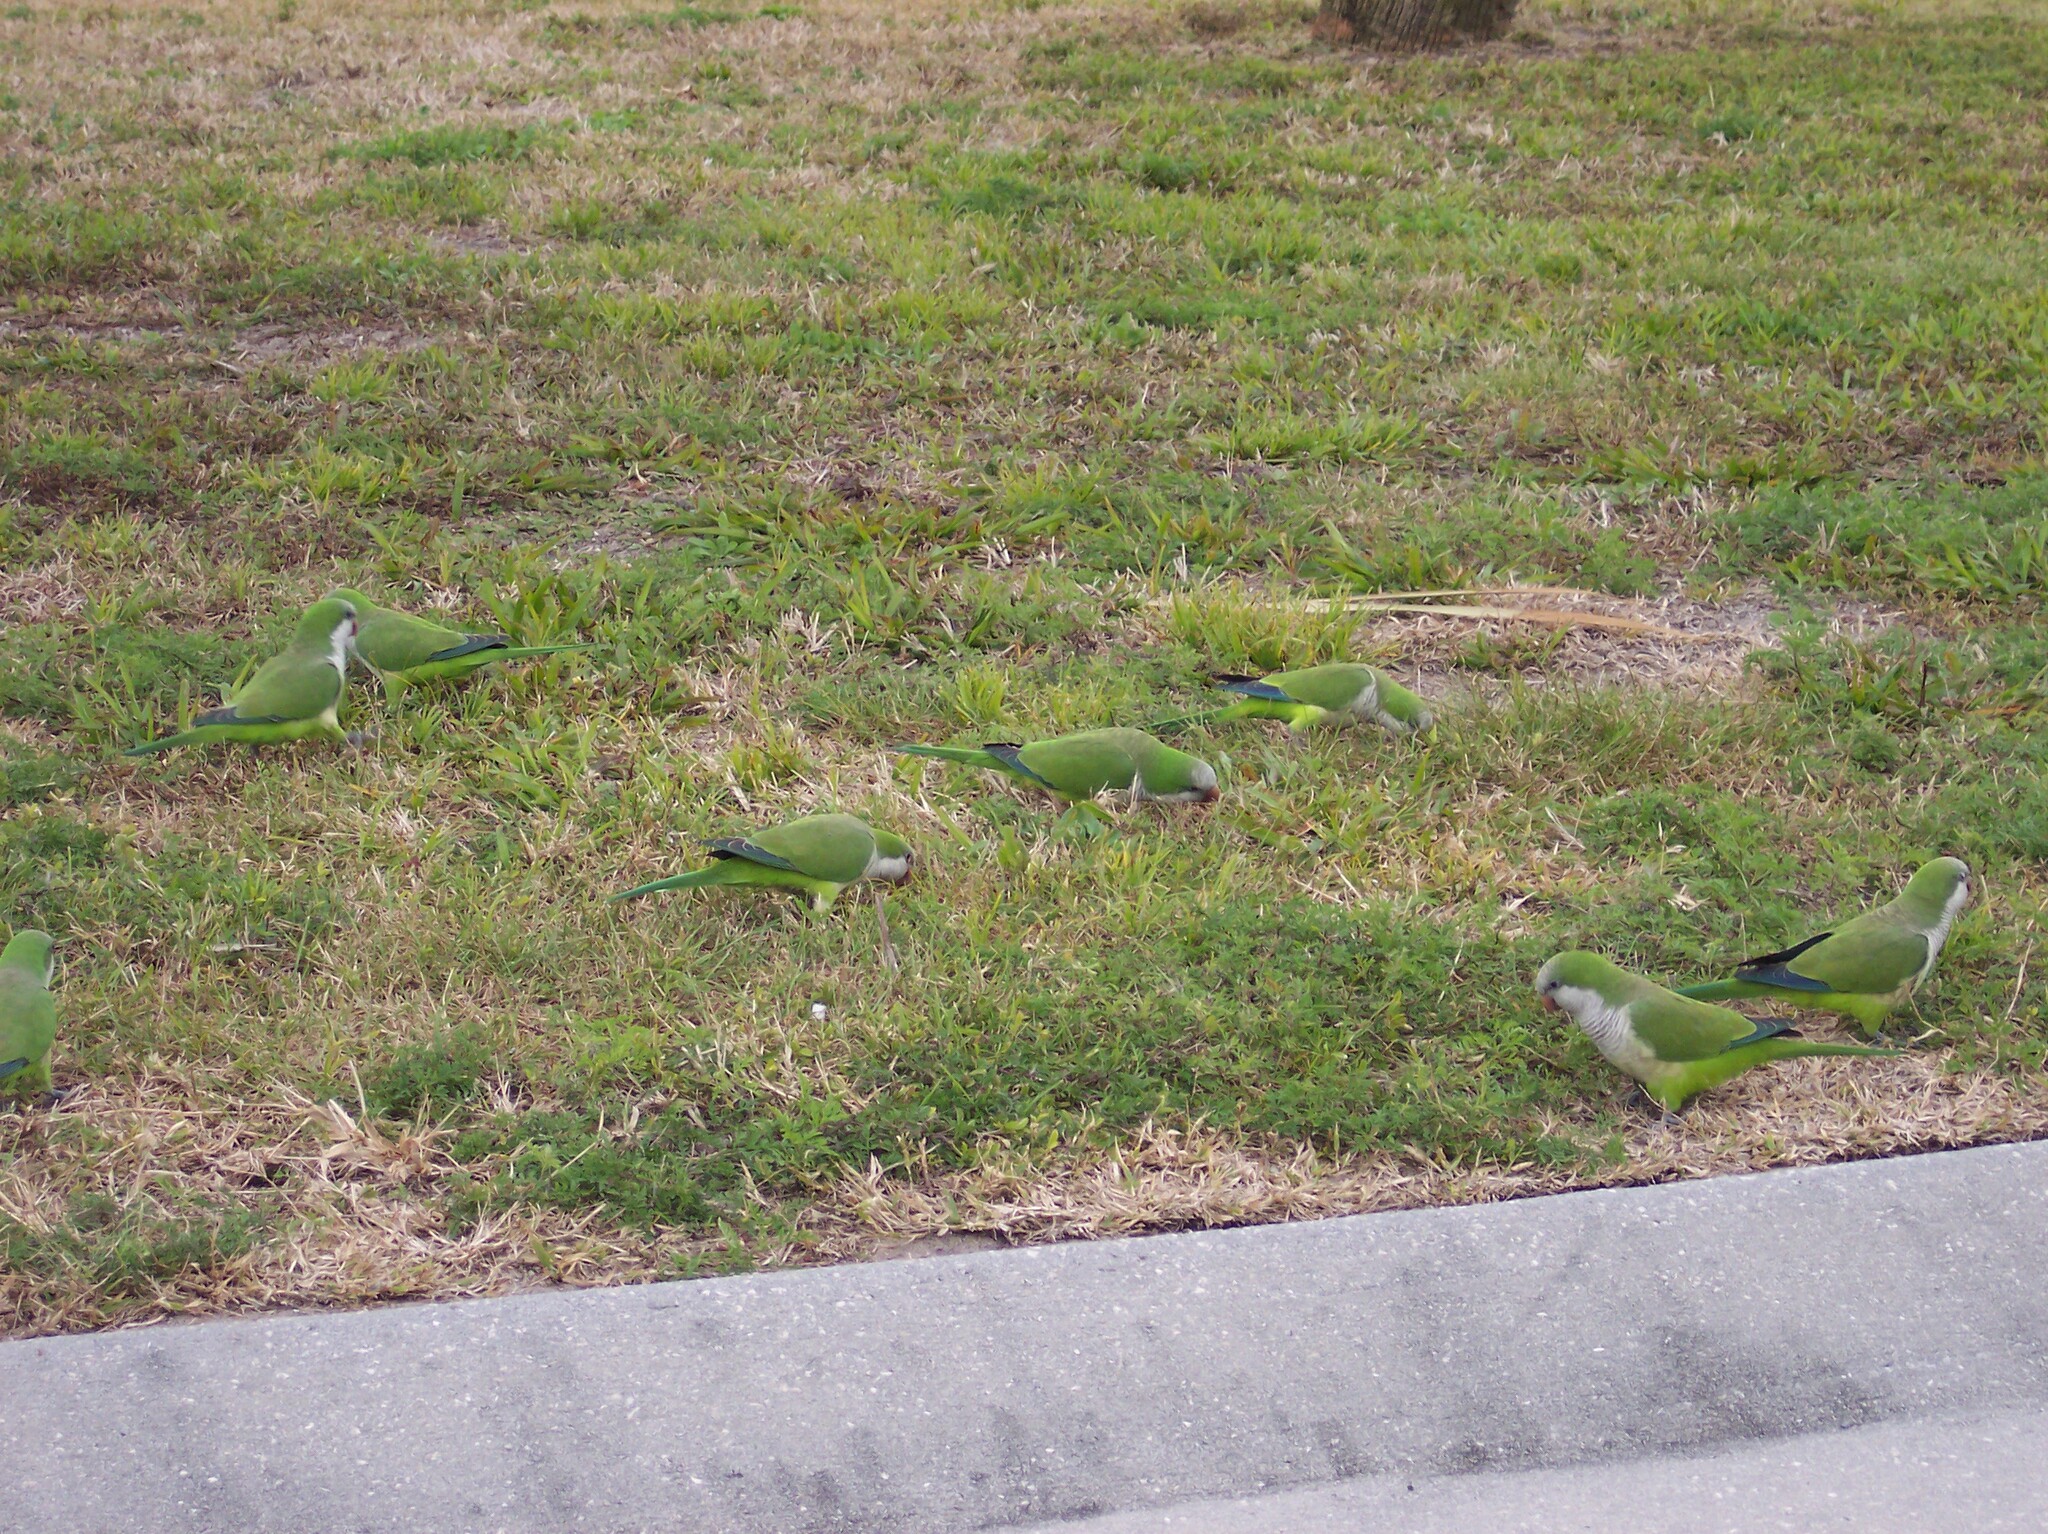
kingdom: Animalia
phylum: Chordata
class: Aves
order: Psittaciformes
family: Psittacidae
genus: Myiopsitta
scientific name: Myiopsitta monachus
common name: Monk parakeet
